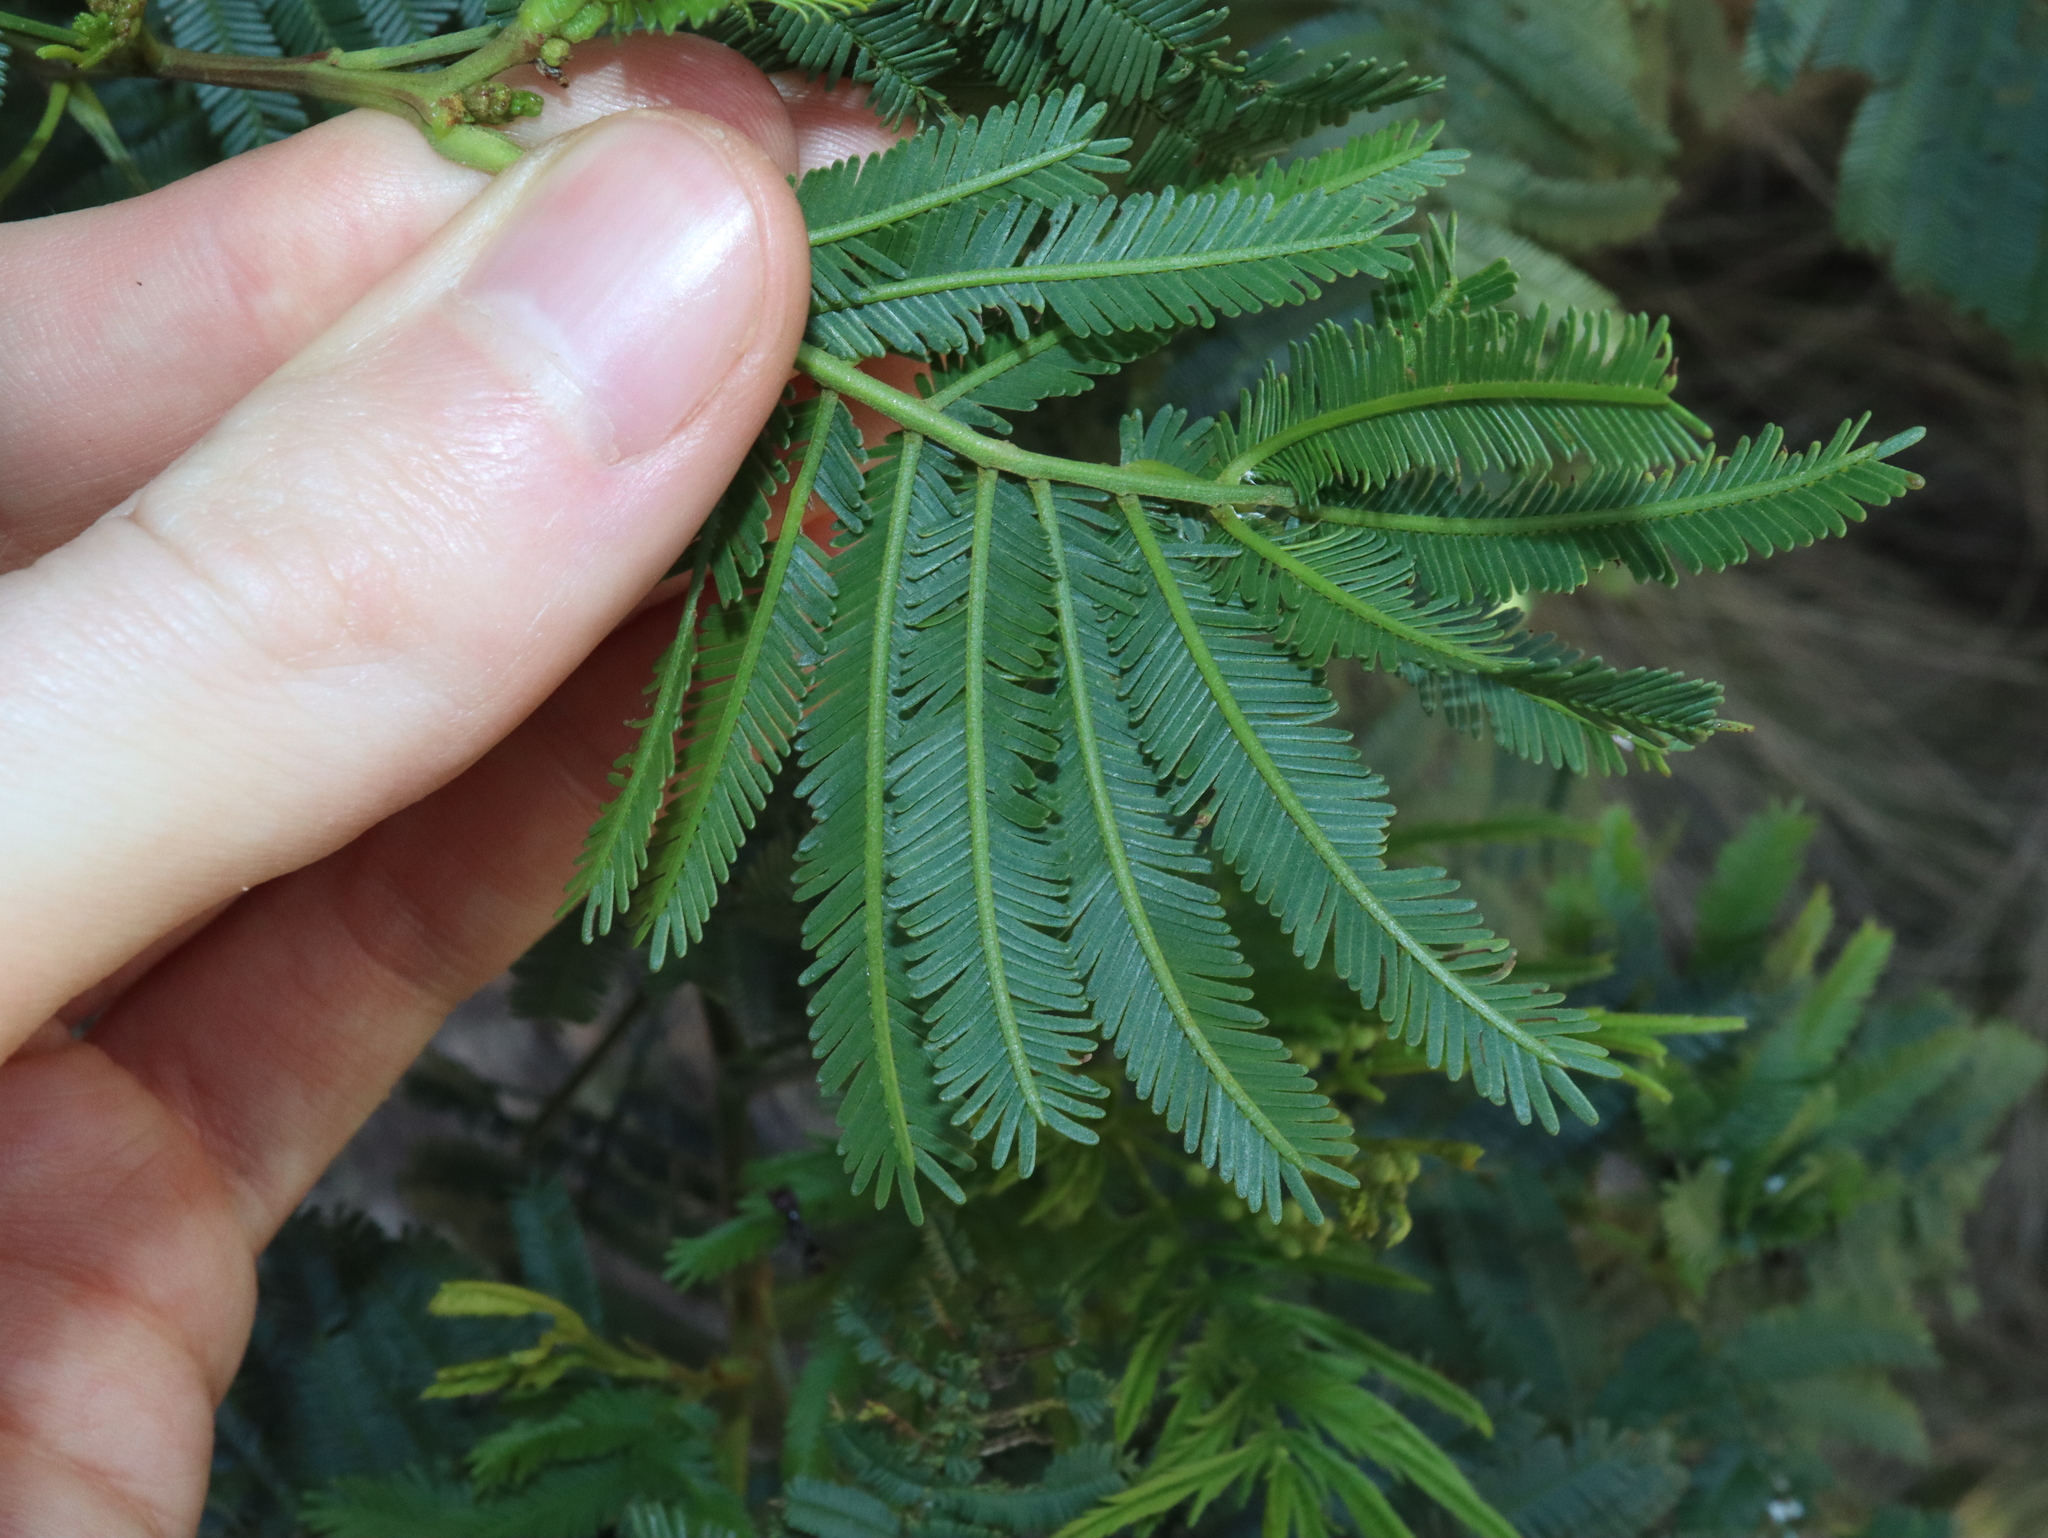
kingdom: Plantae
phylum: Tracheophyta
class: Magnoliopsida
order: Fabales
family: Fabaceae
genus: Acacia
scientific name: Acacia parramattensis
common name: Sydney green wattle
